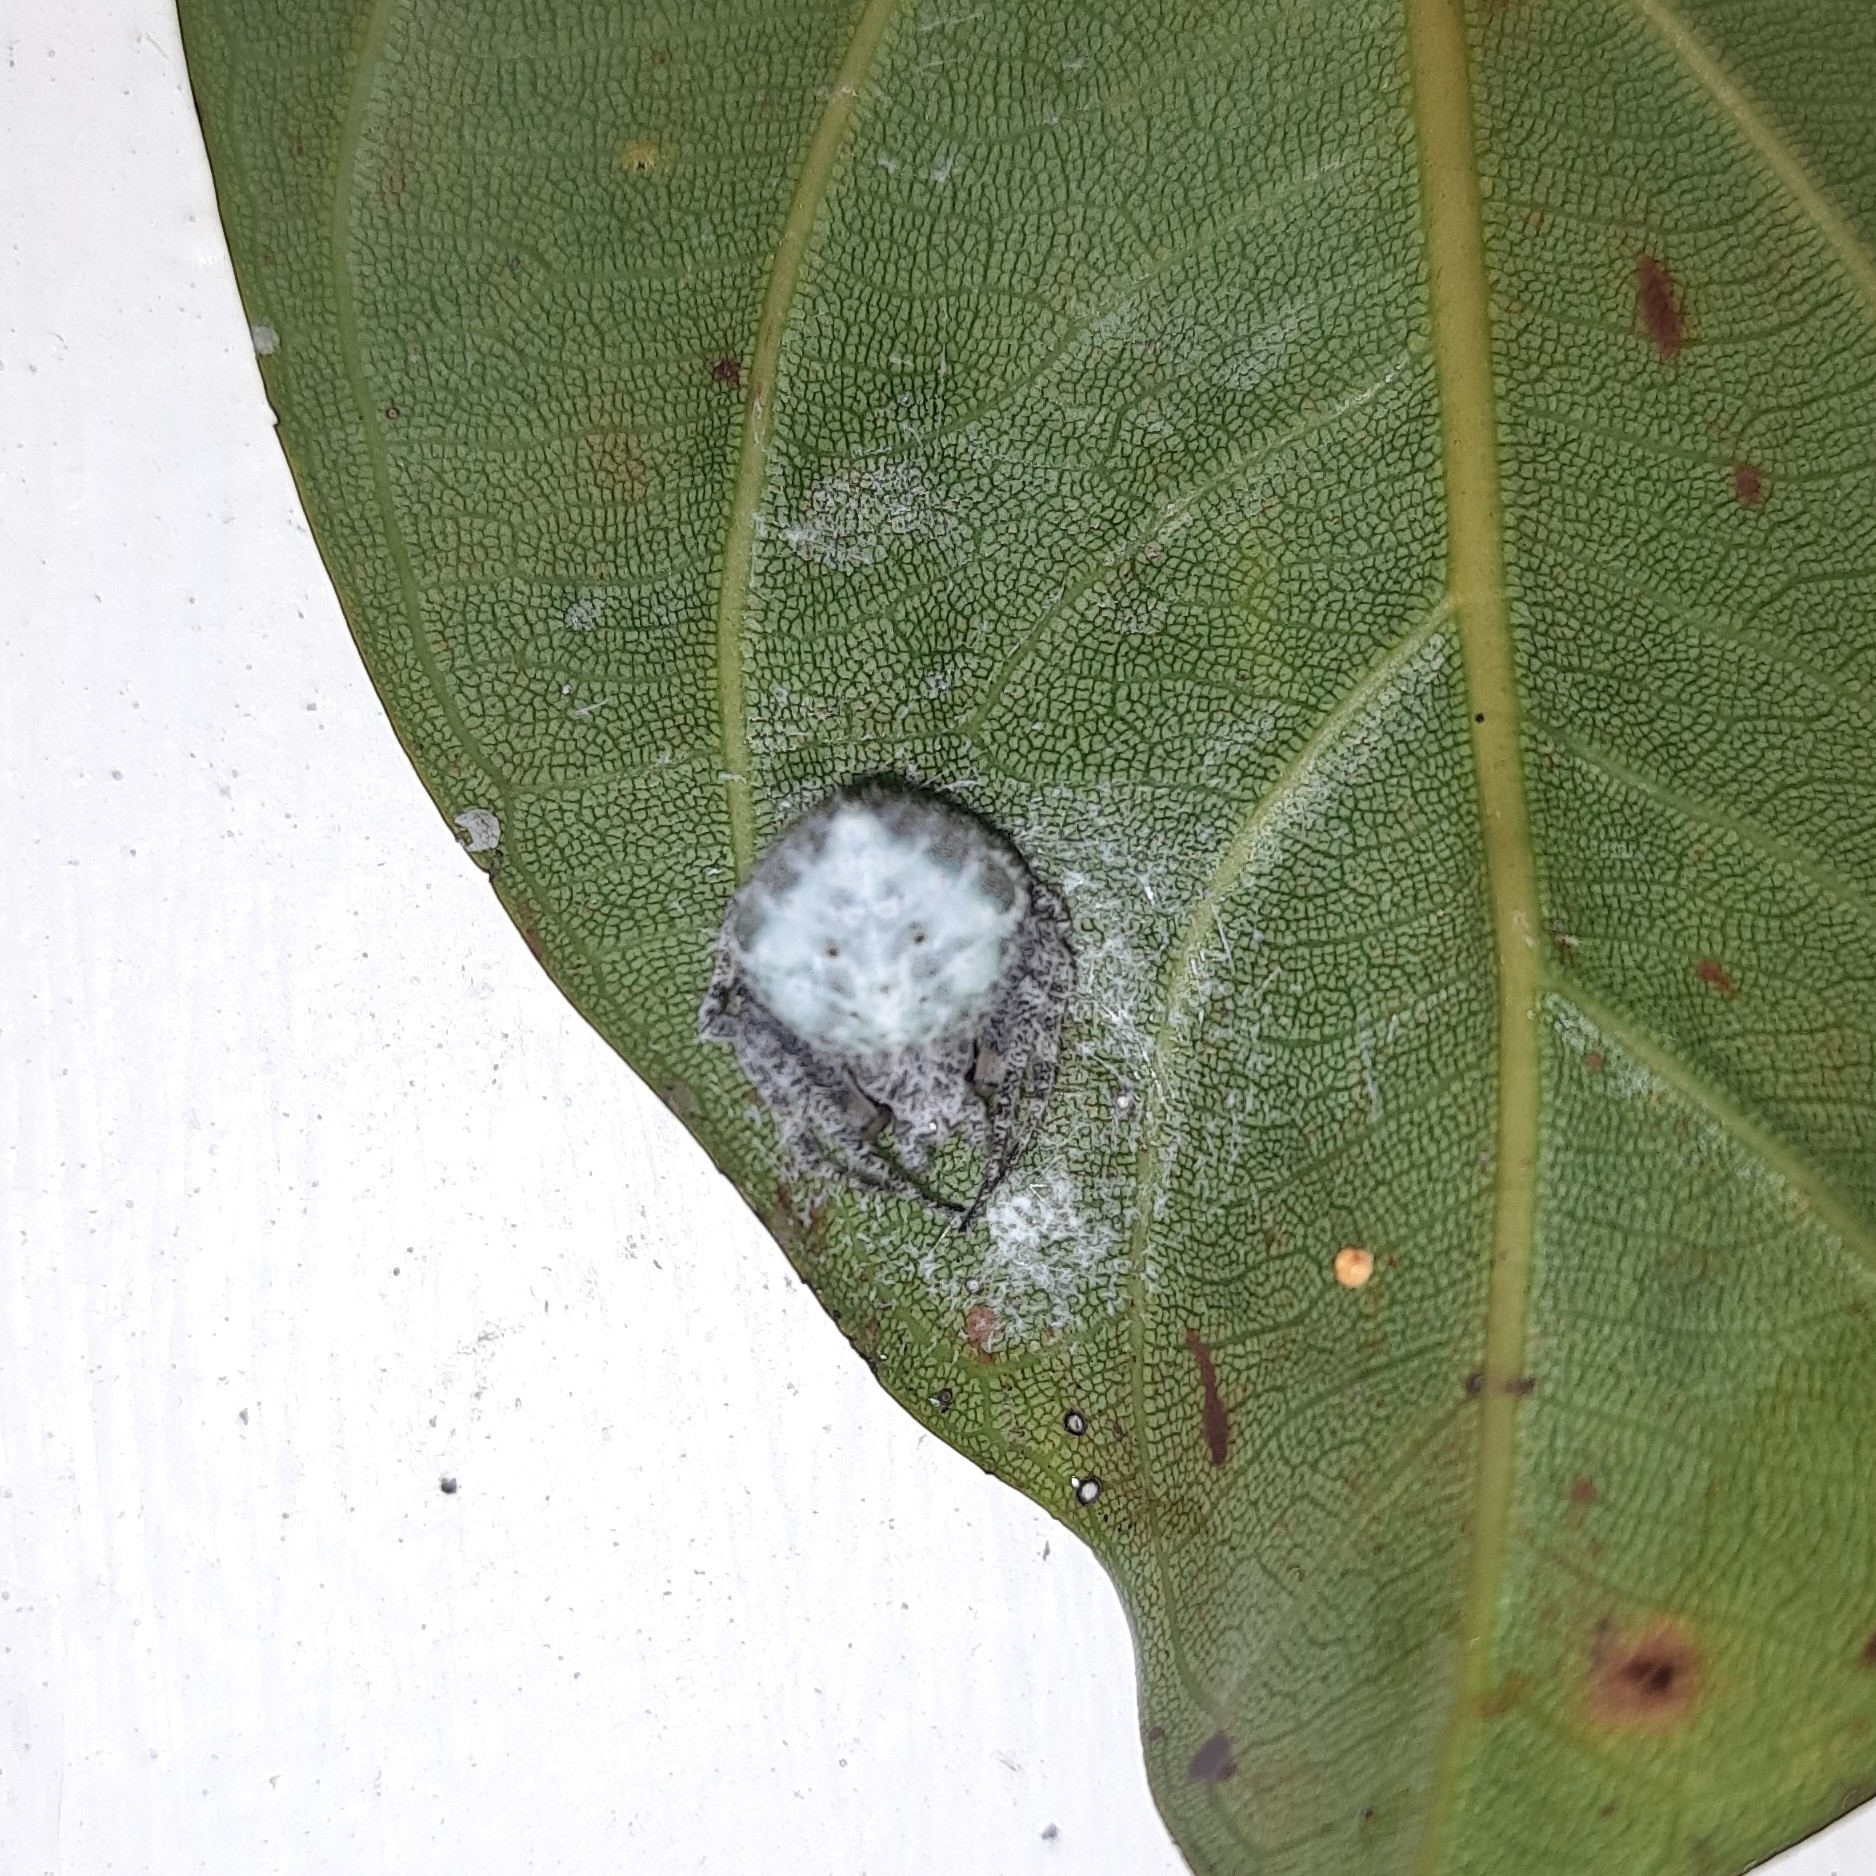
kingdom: Animalia
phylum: Arthropoda
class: Arachnida
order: Araneae
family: Araneidae
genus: Eriovixia
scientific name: Eriovixia laglaizei
